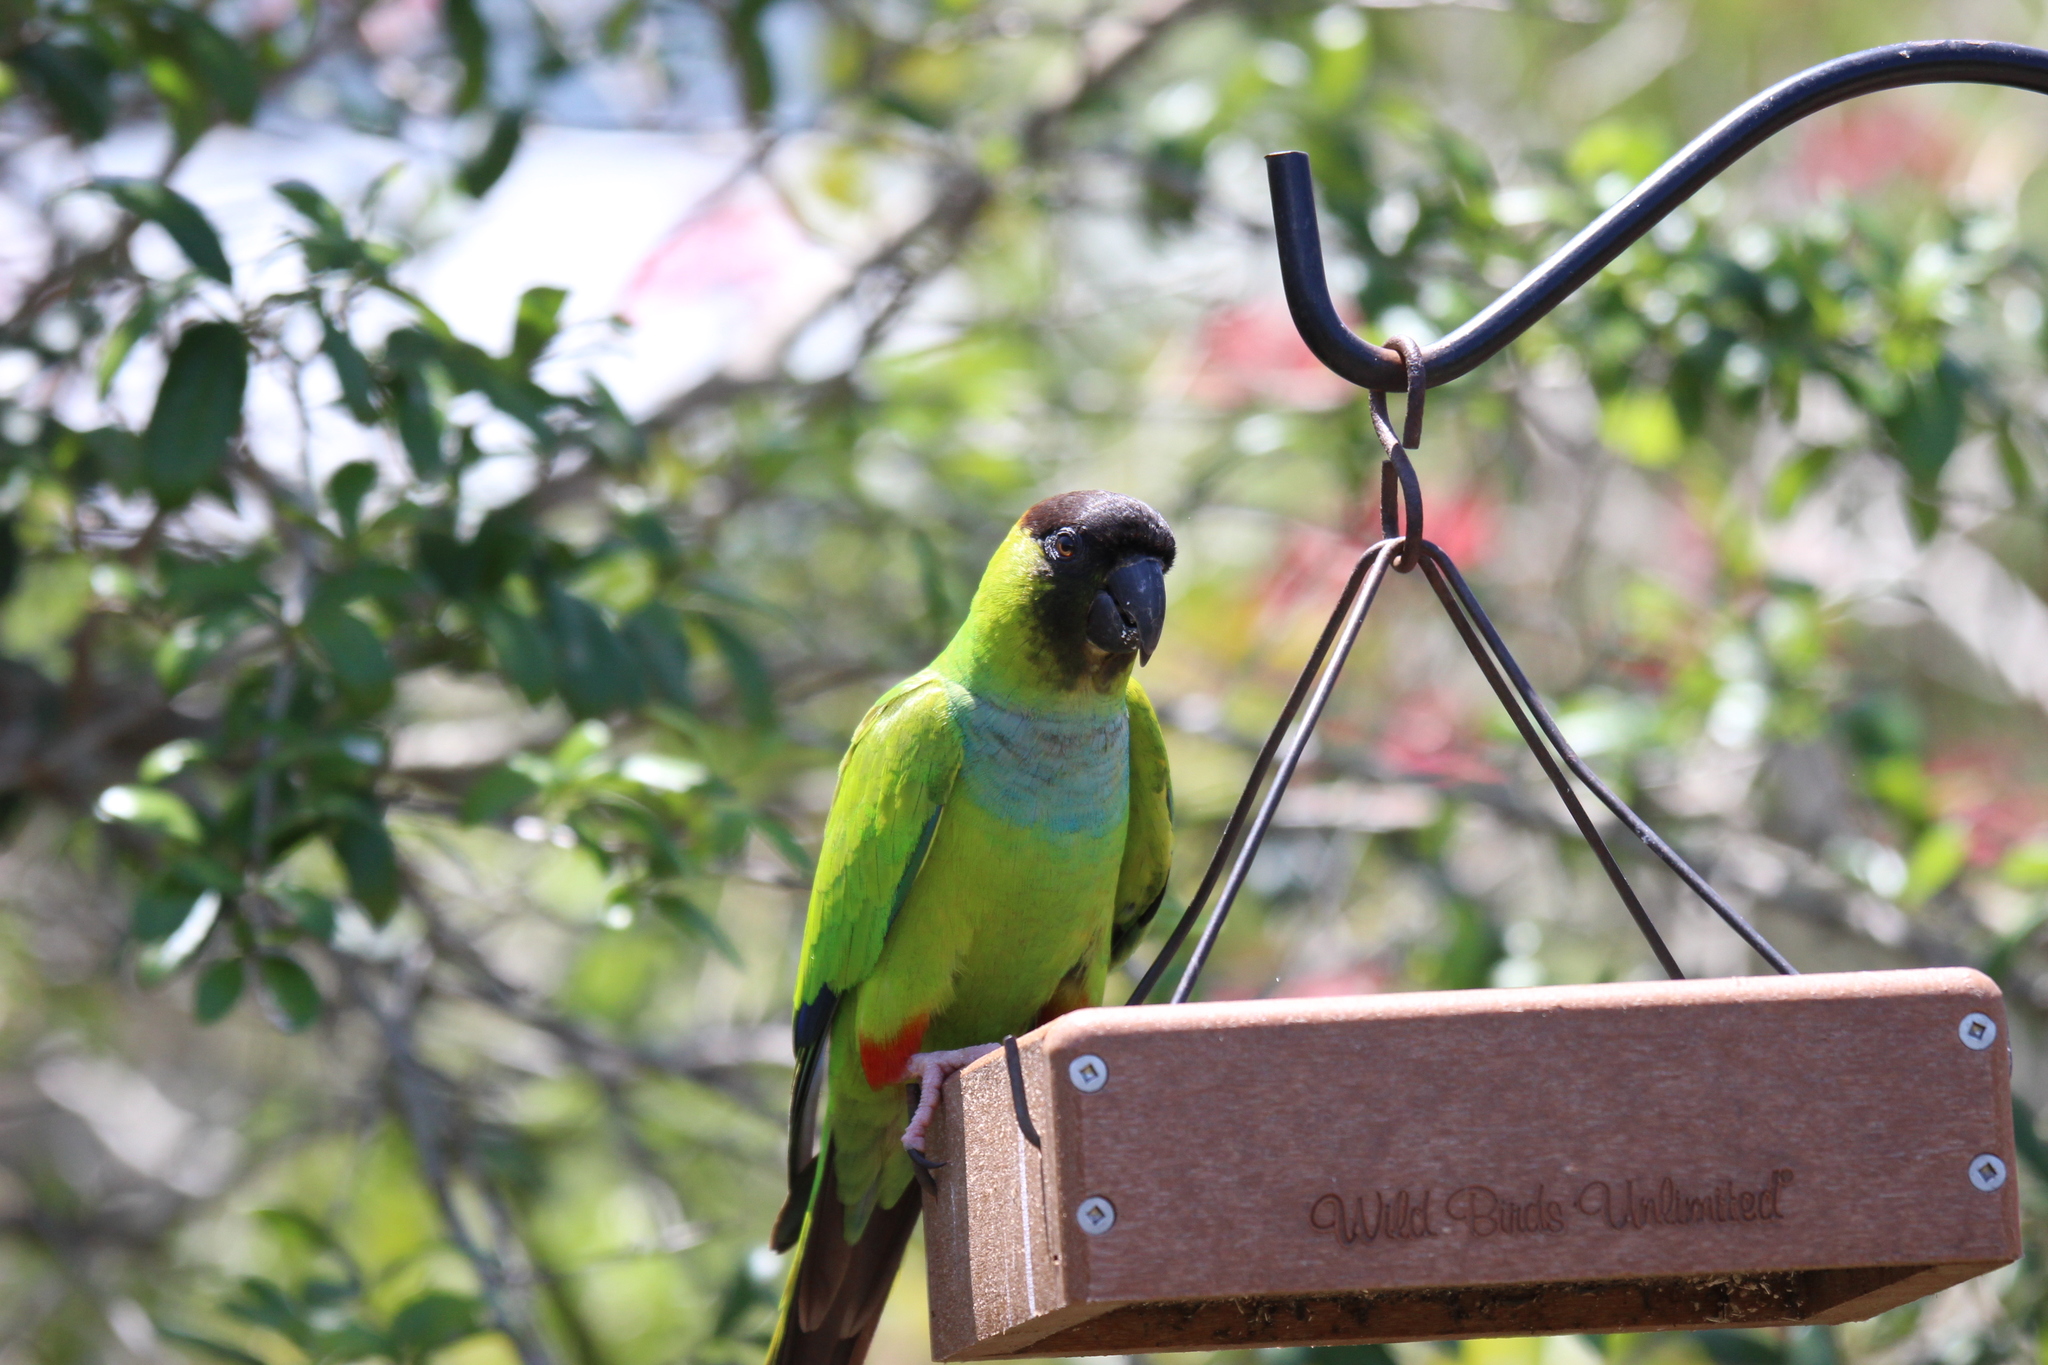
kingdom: Animalia
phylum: Chordata
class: Aves
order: Psittaciformes
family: Psittacidae
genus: Nandayus
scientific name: Nandayus nenday
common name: Nanday parakeet
